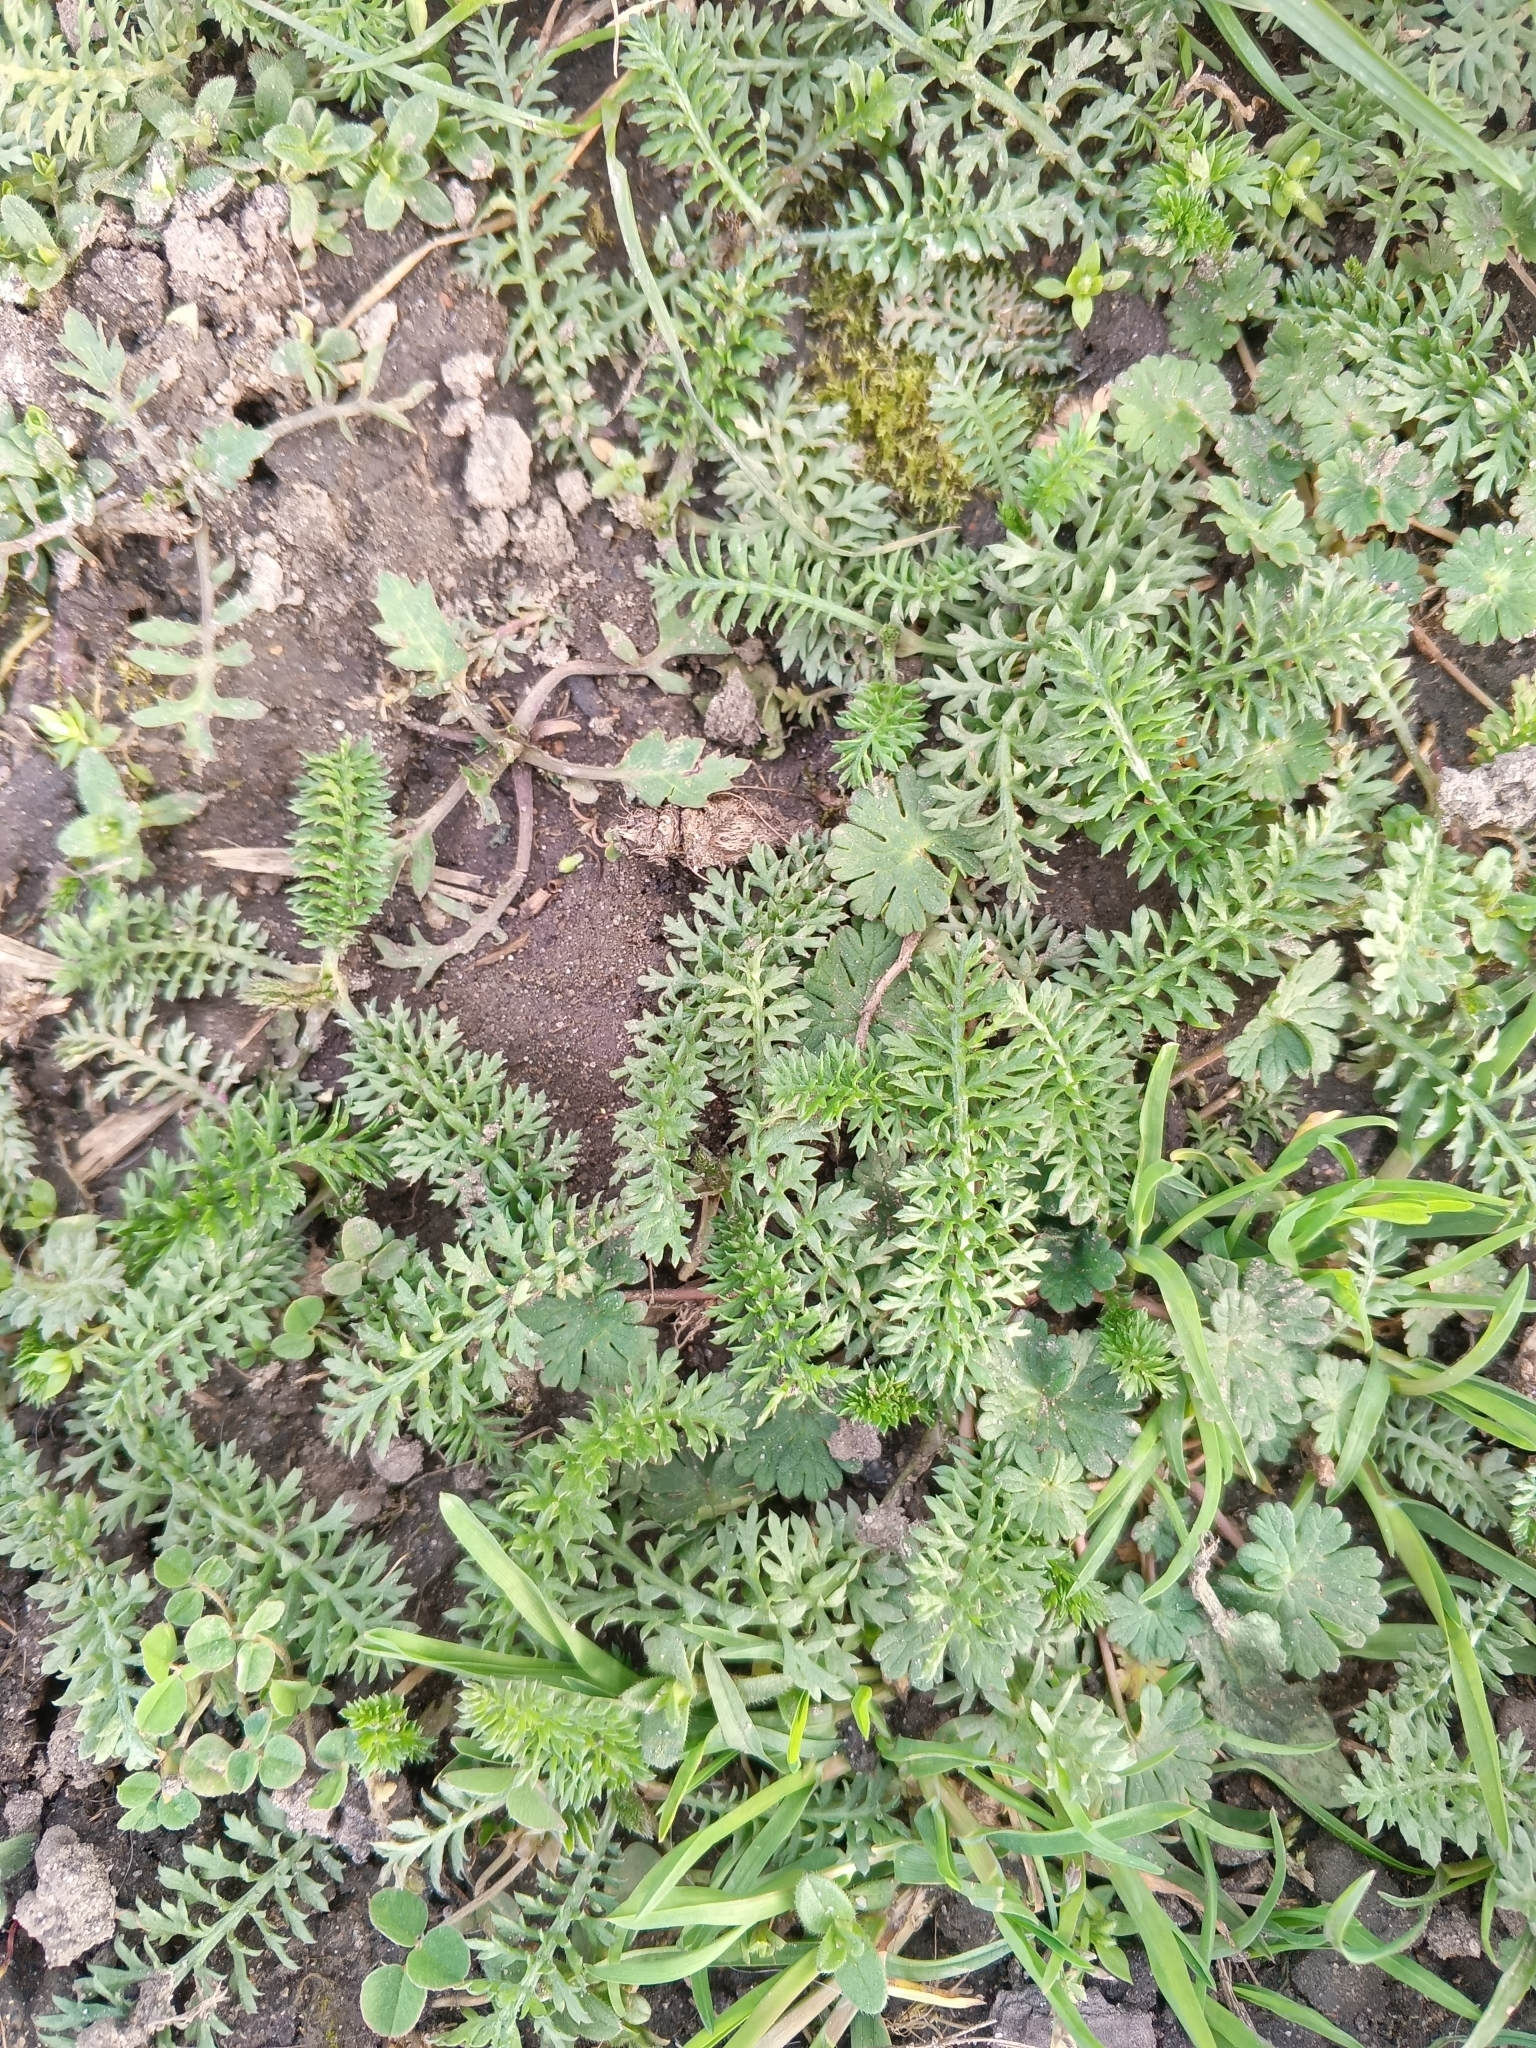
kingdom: Plantae
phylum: Tracheophyta
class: Magnoliopsida
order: Asterales
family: Asteraceae
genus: Achillea
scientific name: Achillea millefolium
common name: Yarrow
